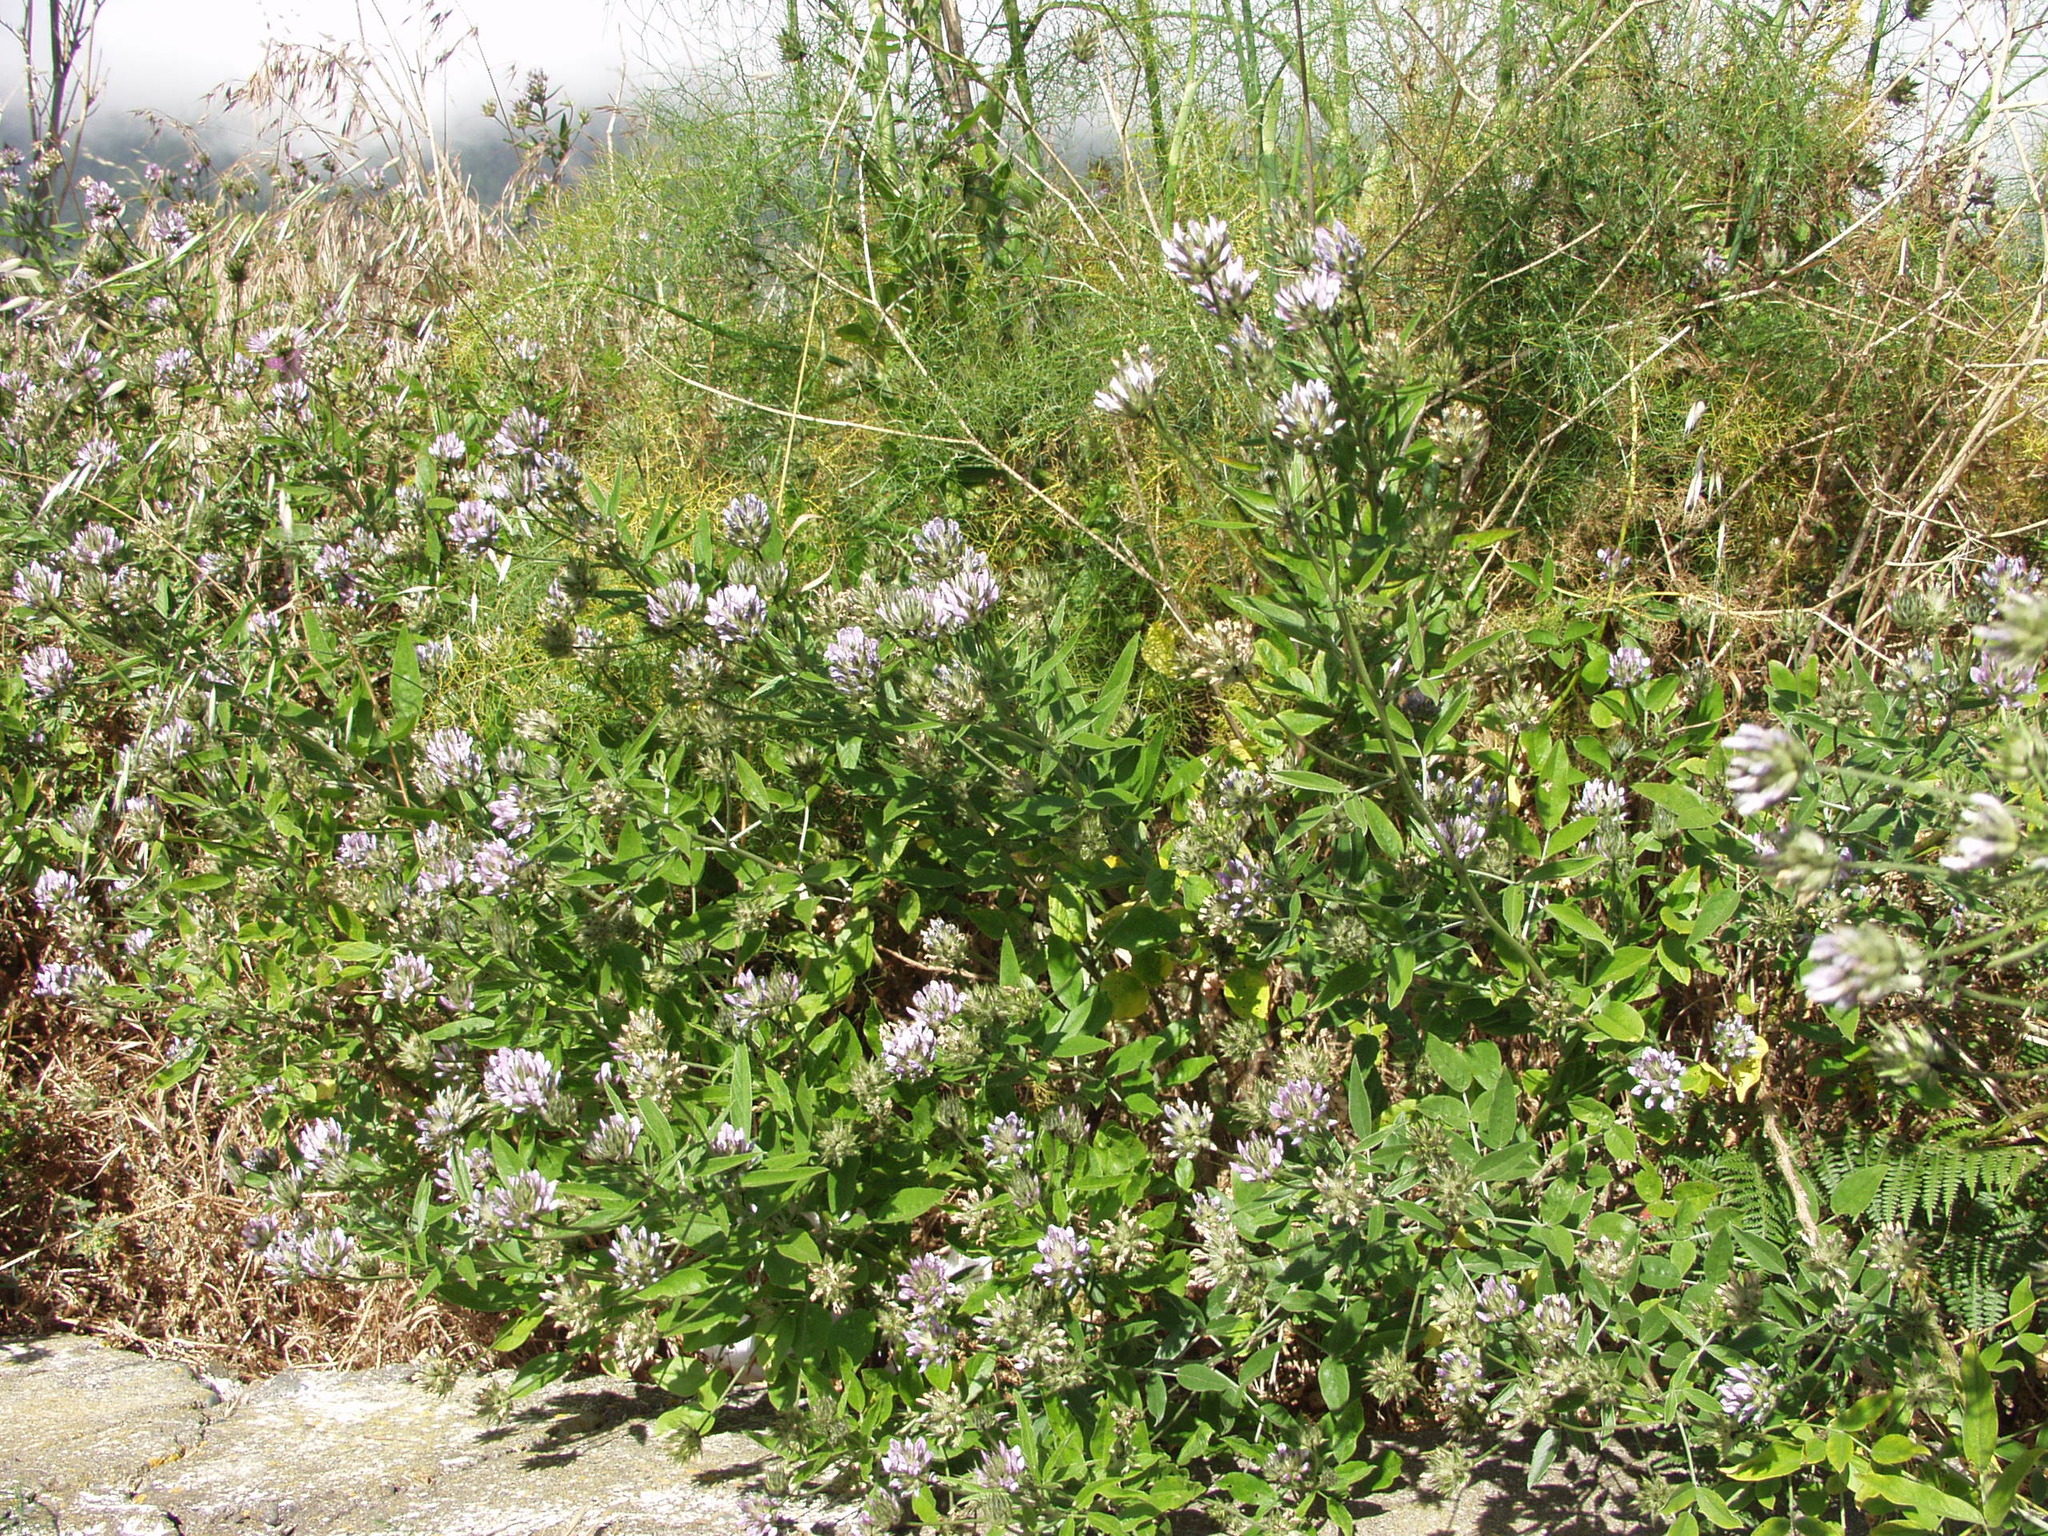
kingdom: Plantae
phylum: Tracheophyta
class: Magnoliopsida
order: Fabales
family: Fabaceae
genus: Bituminaria
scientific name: Bituminaria bituminosa
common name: Arabian pea
